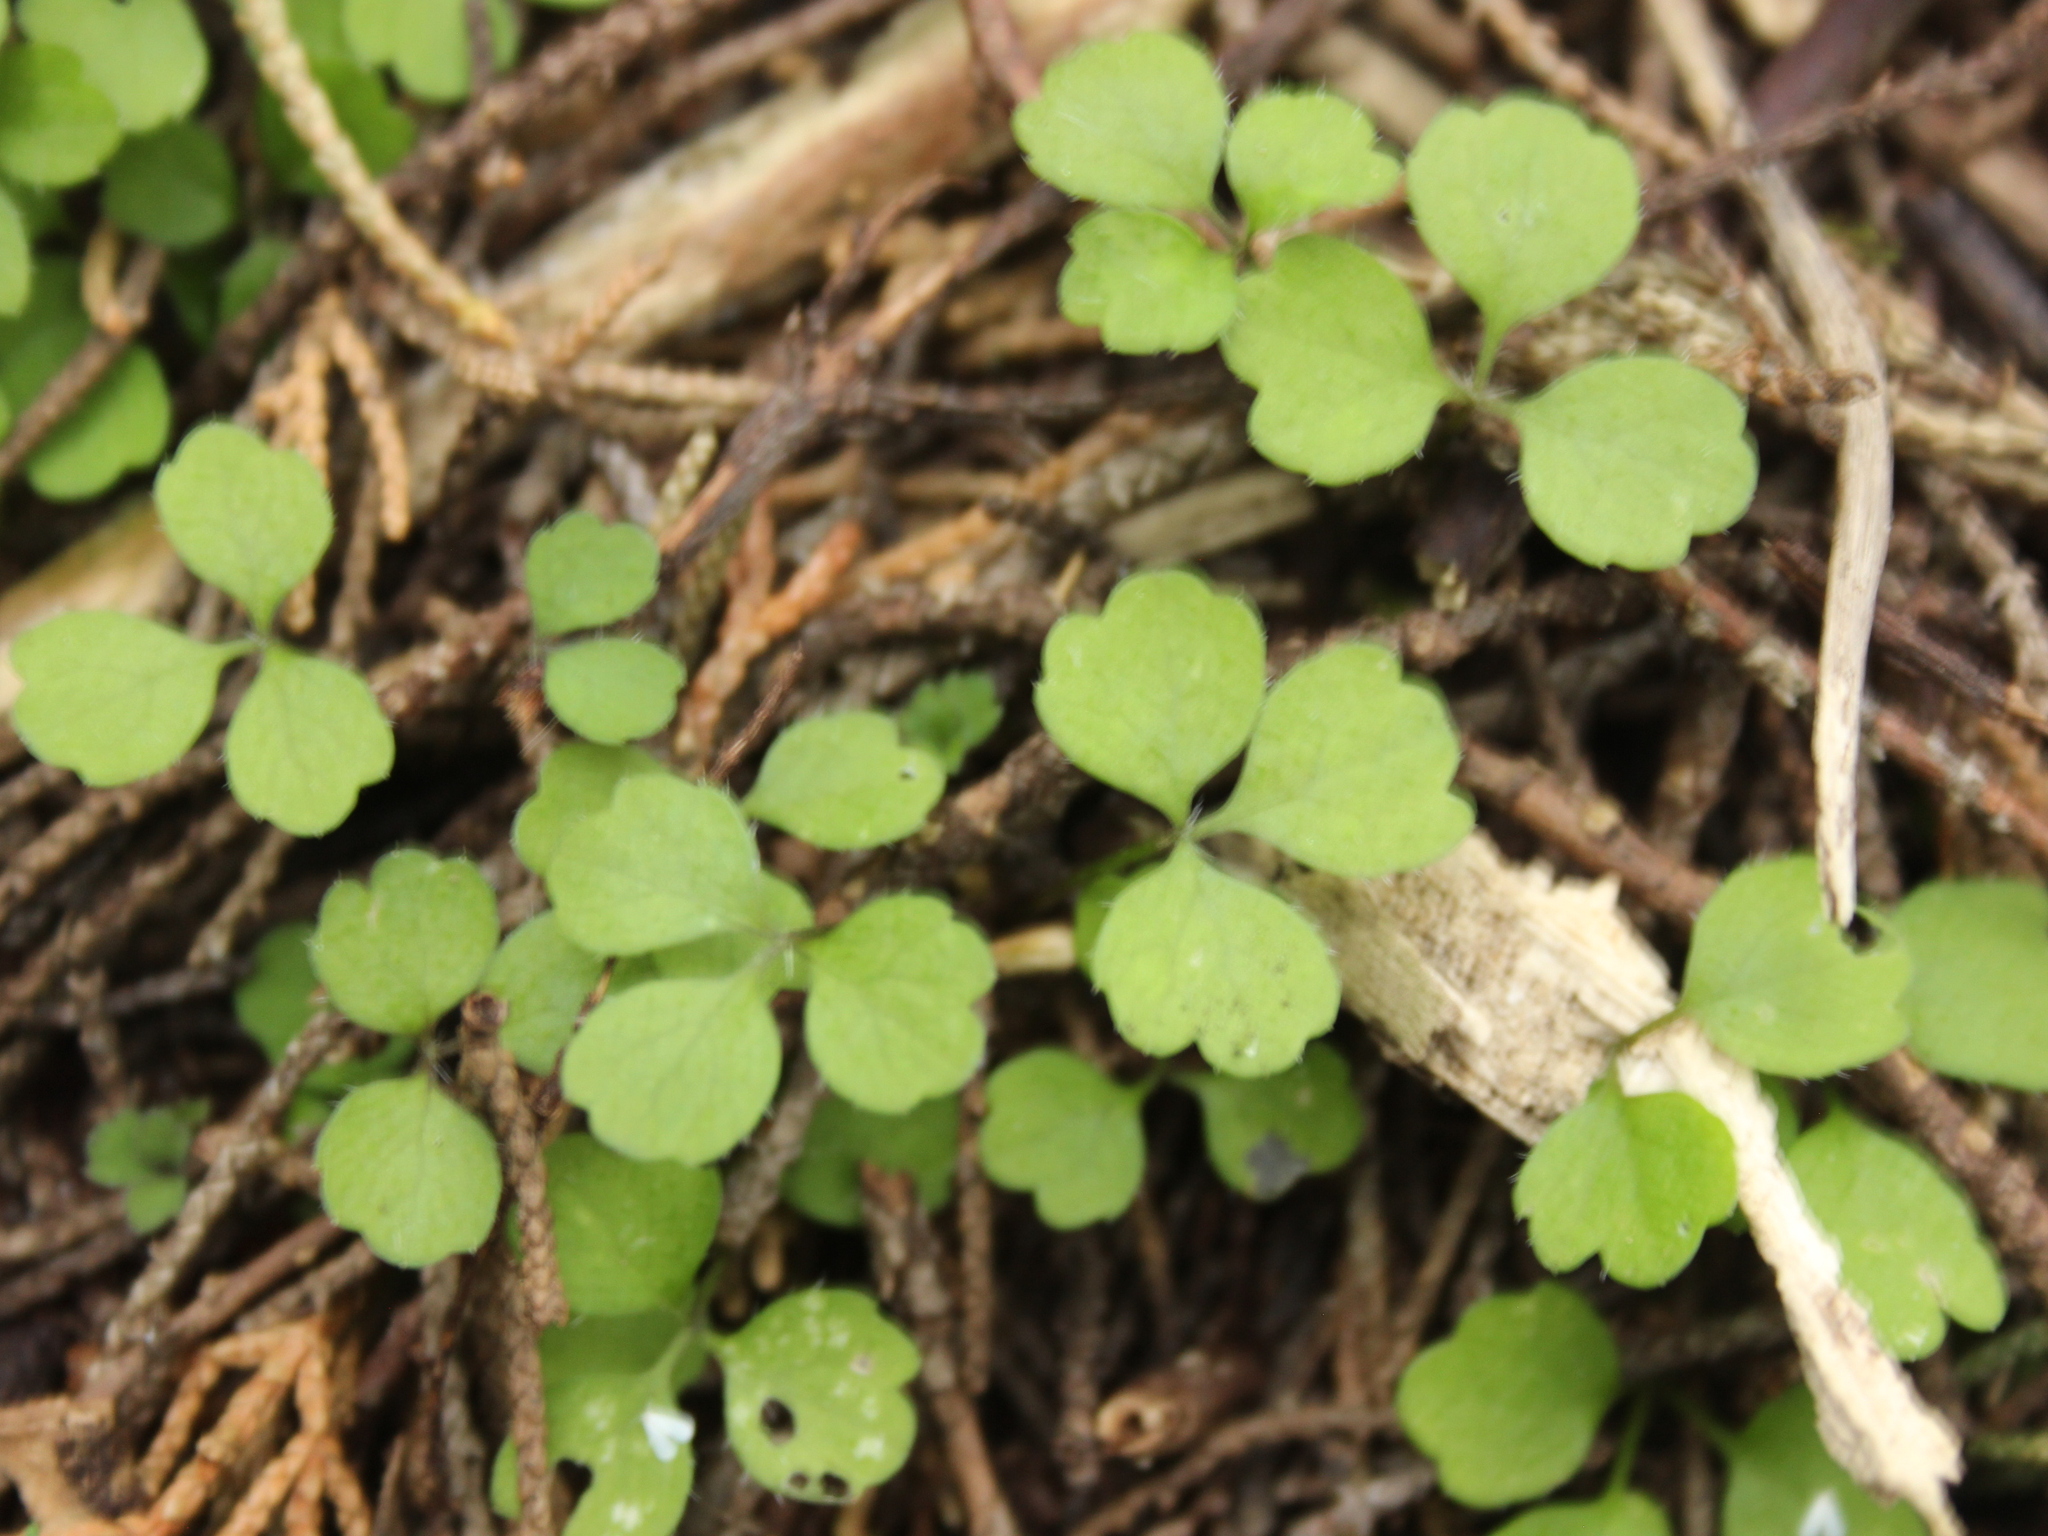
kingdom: Plantae
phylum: Tracheophyta
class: Magnoliopsida
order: Apiales
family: Apiaceae
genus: Azorella
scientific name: Azorella hookeri
